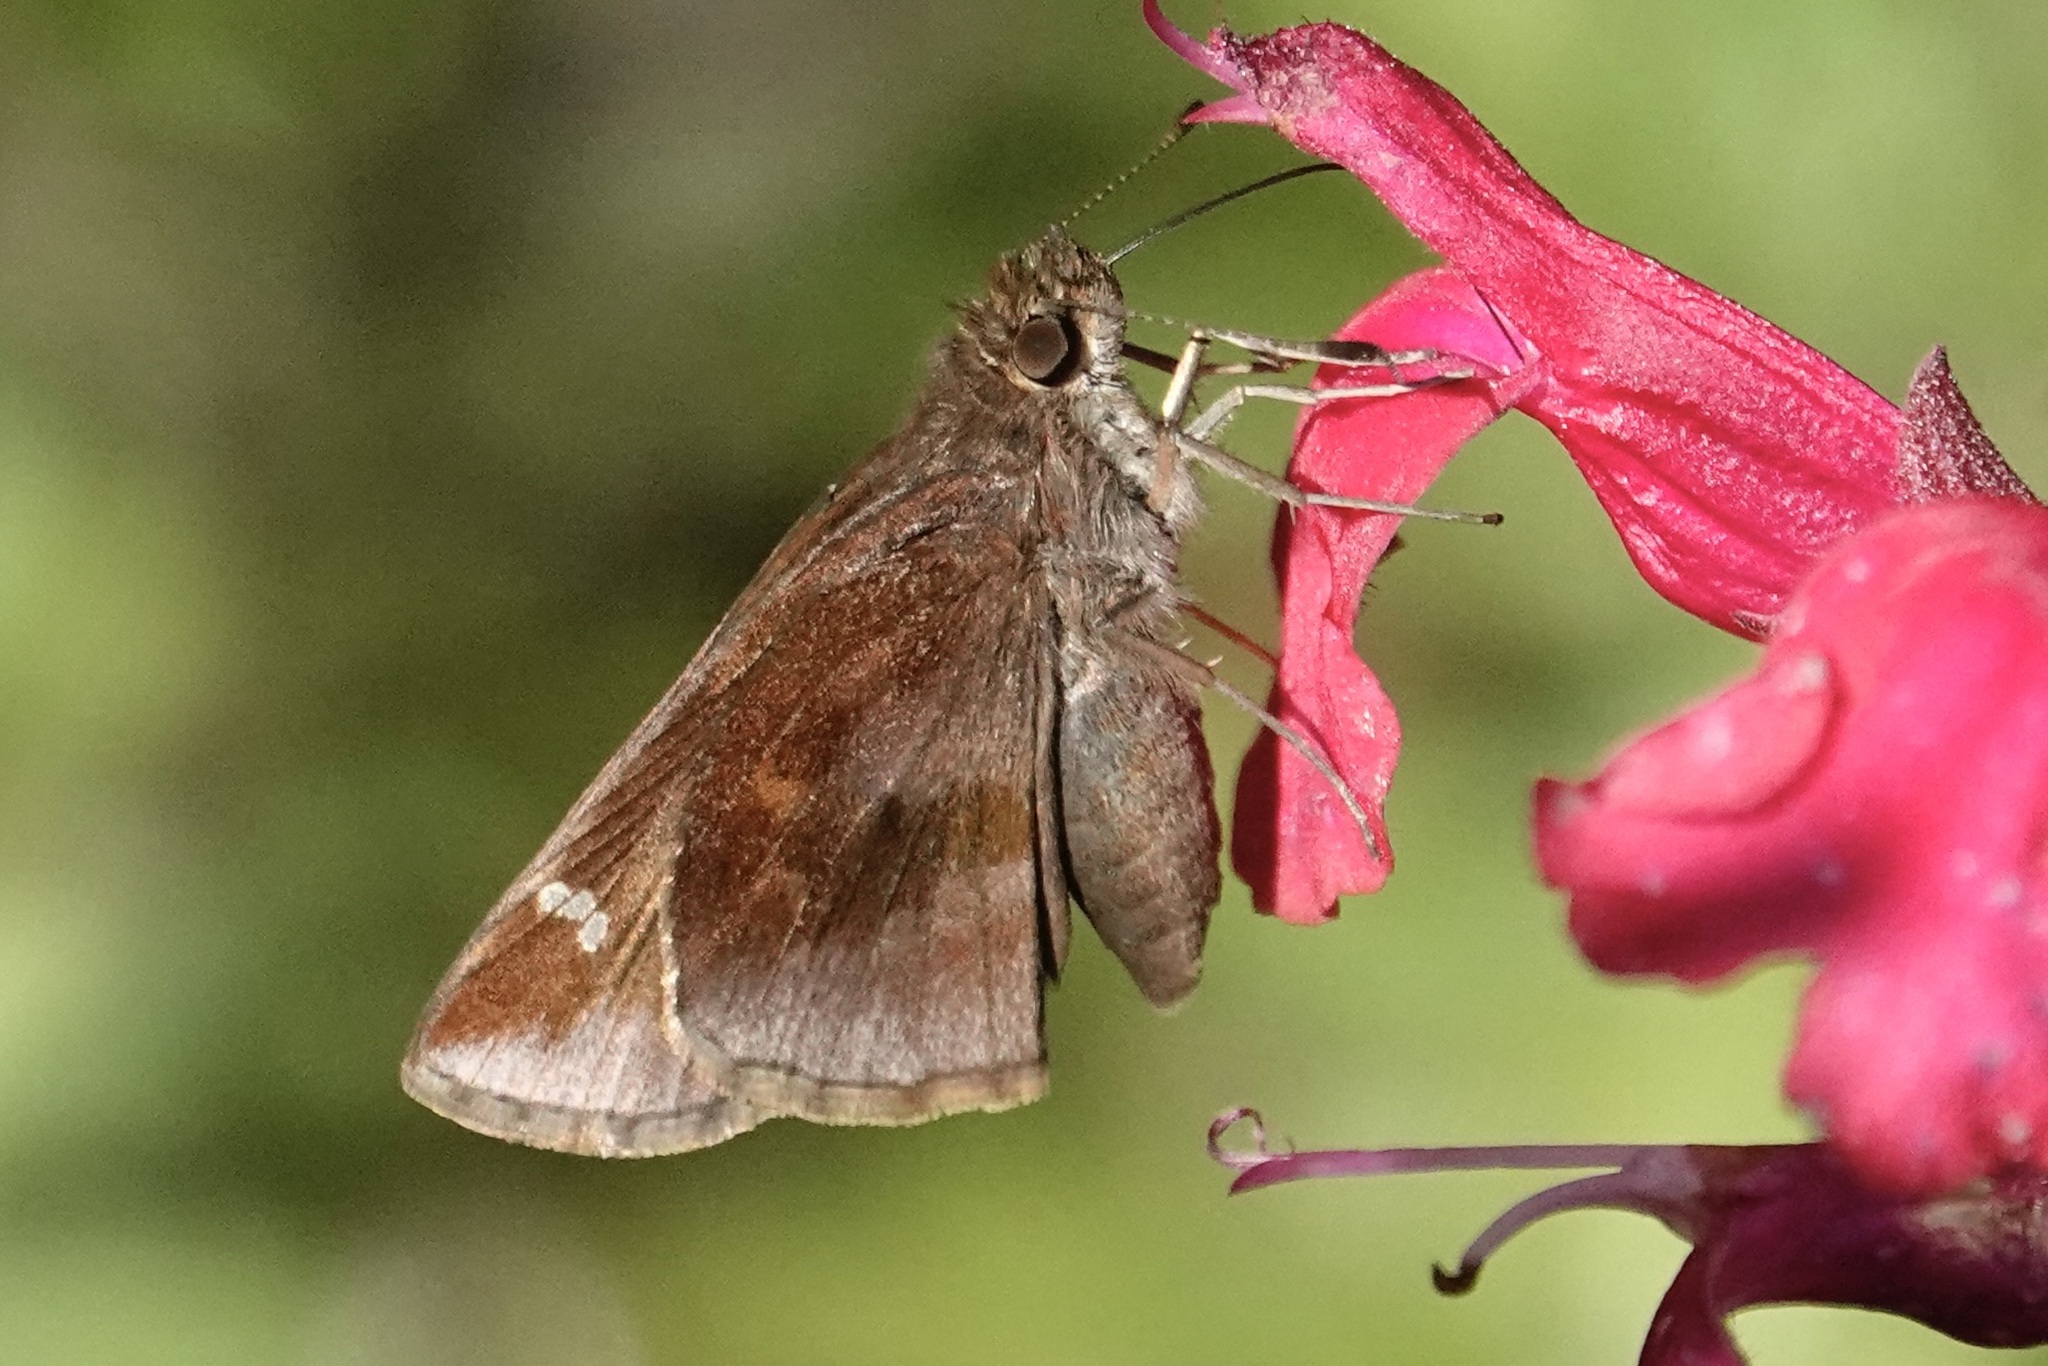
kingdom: Animalia
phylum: Arthropoda
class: Insecta
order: Lepidoptera
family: Hesperiidae
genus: Lerema
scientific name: Lerema accius
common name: Clouded skipper
